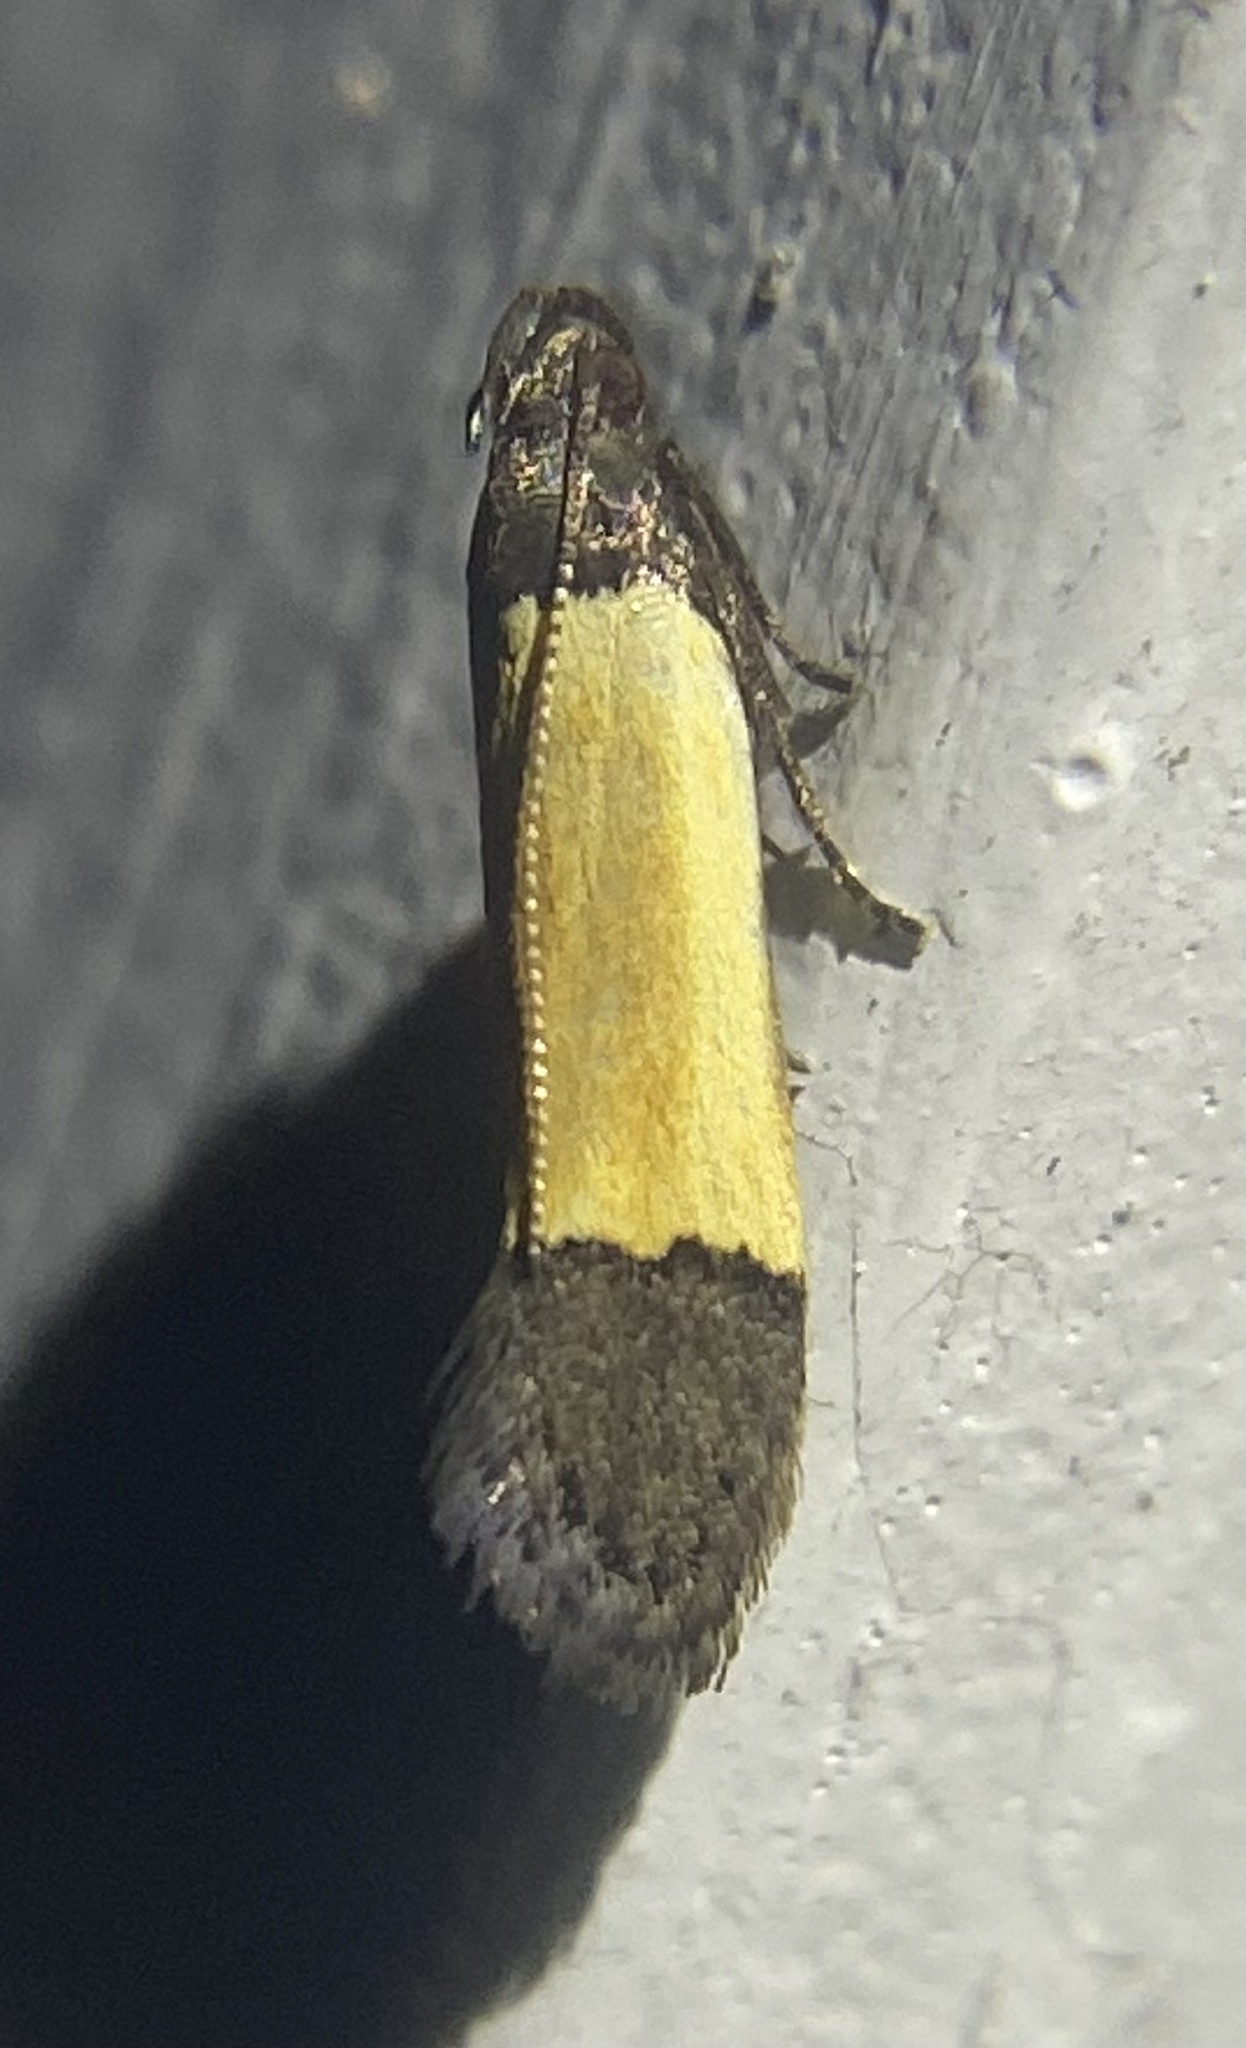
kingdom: Animalia
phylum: Arthropoda
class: Insecta
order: Lepidoptera
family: Gelechiidae
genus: Anacampsis
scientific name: Anacampsis coverdalella
